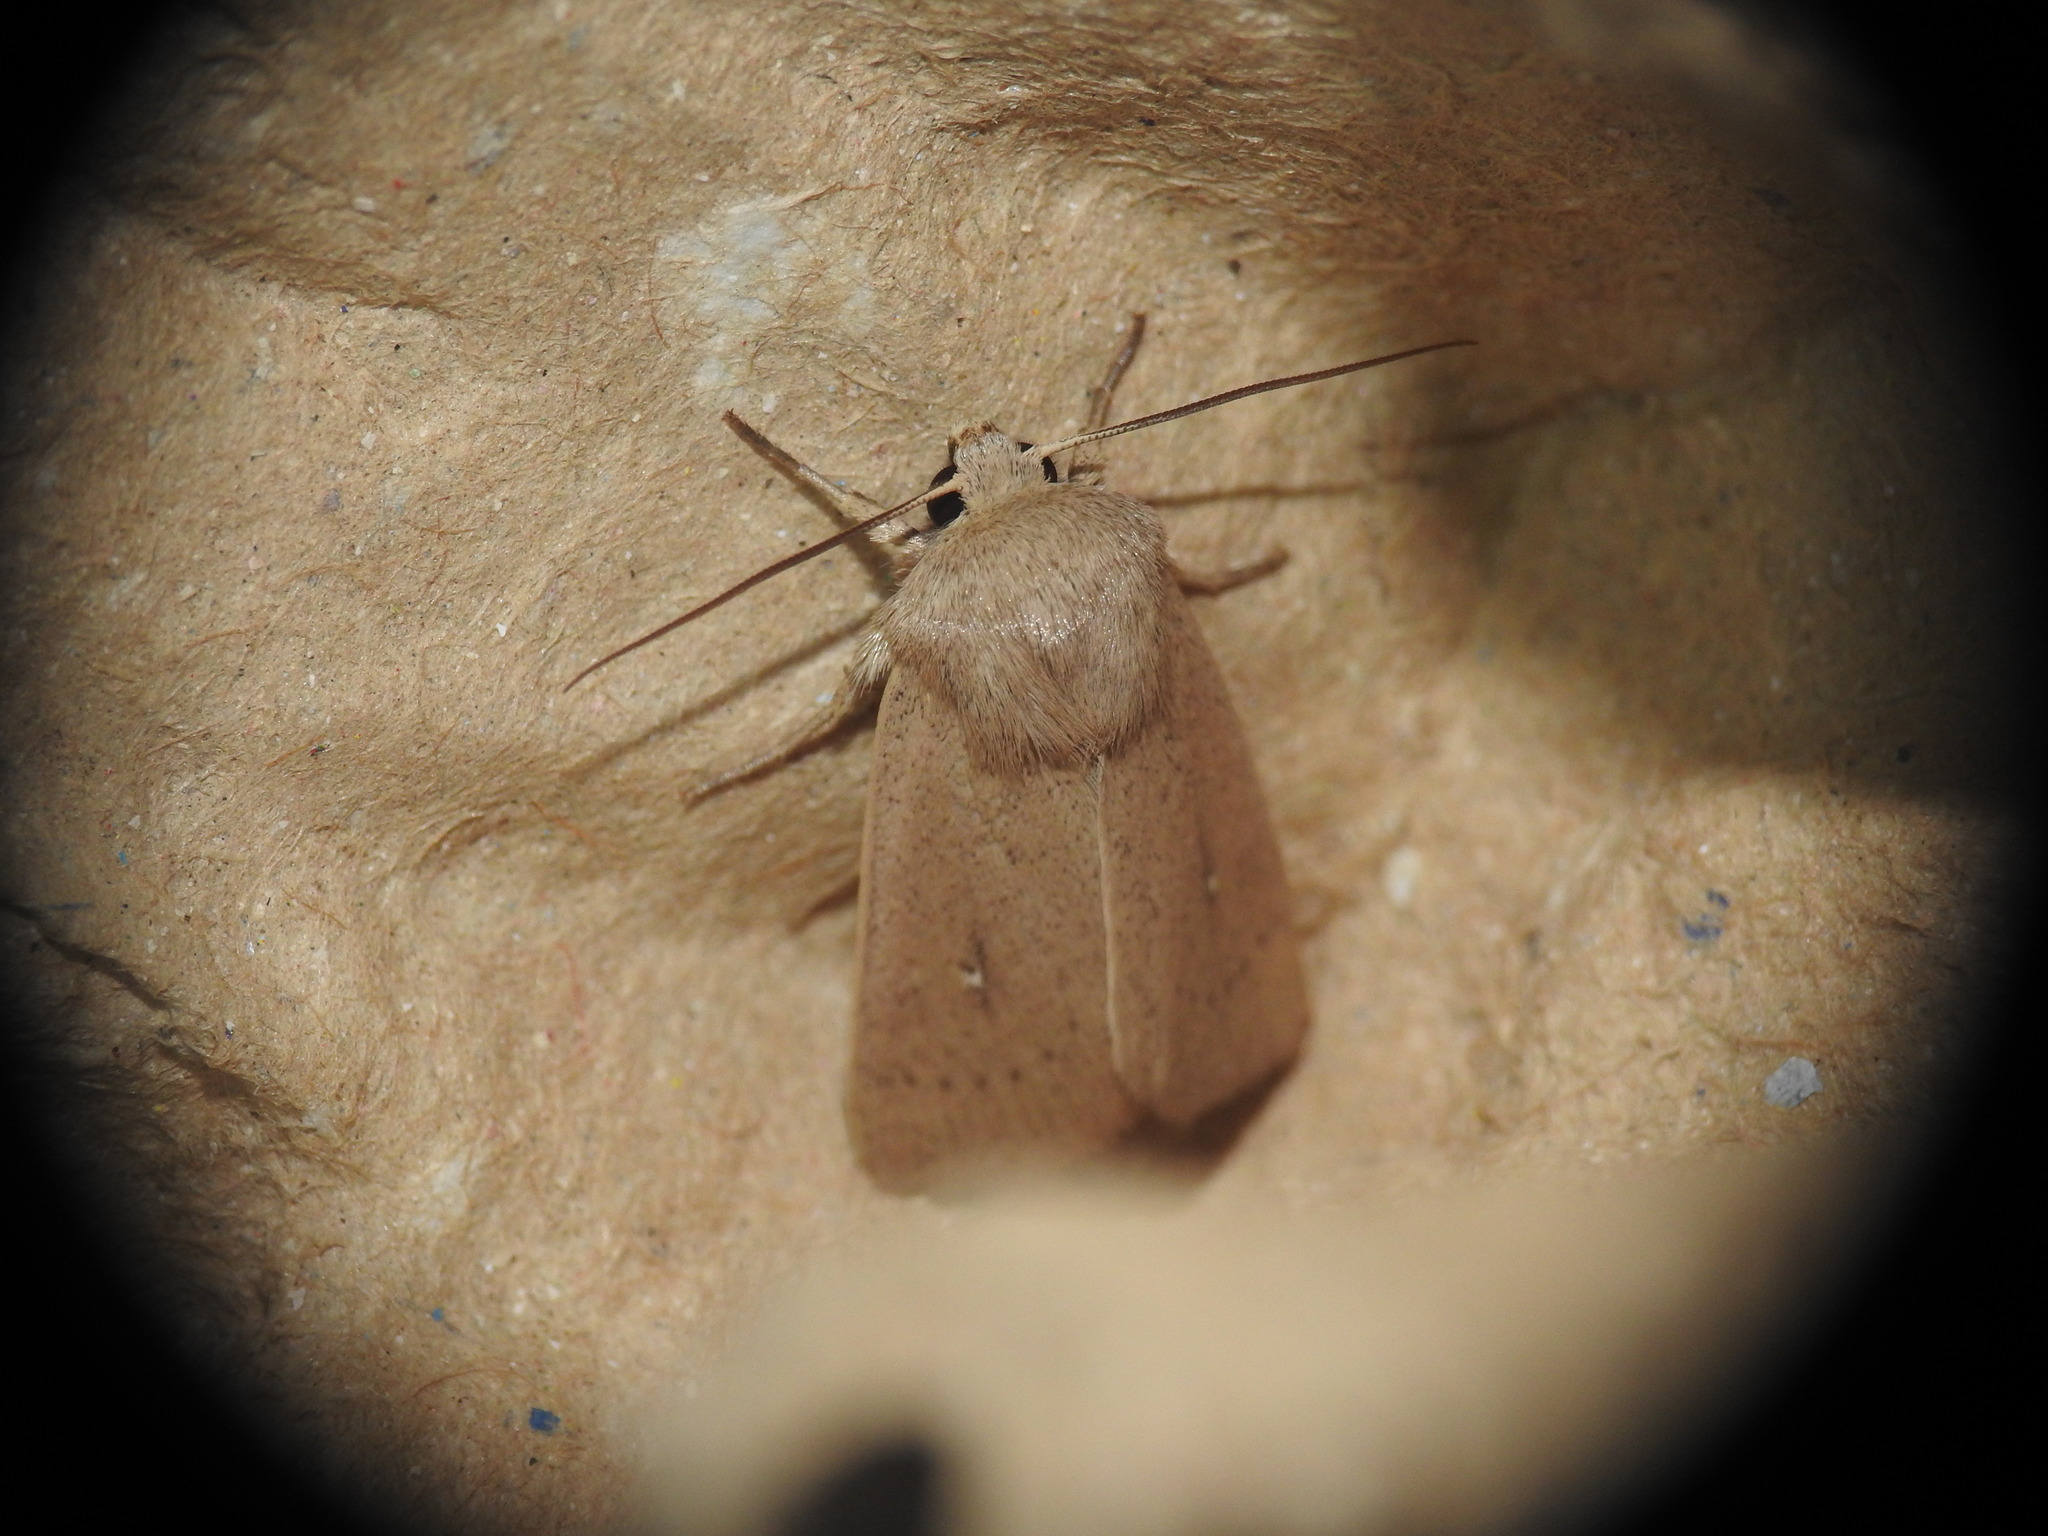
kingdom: Animalia
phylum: Arthropoda
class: Insecta
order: Lepidoptera
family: Noctuidae
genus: Mythimna
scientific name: Mythimna sicula
